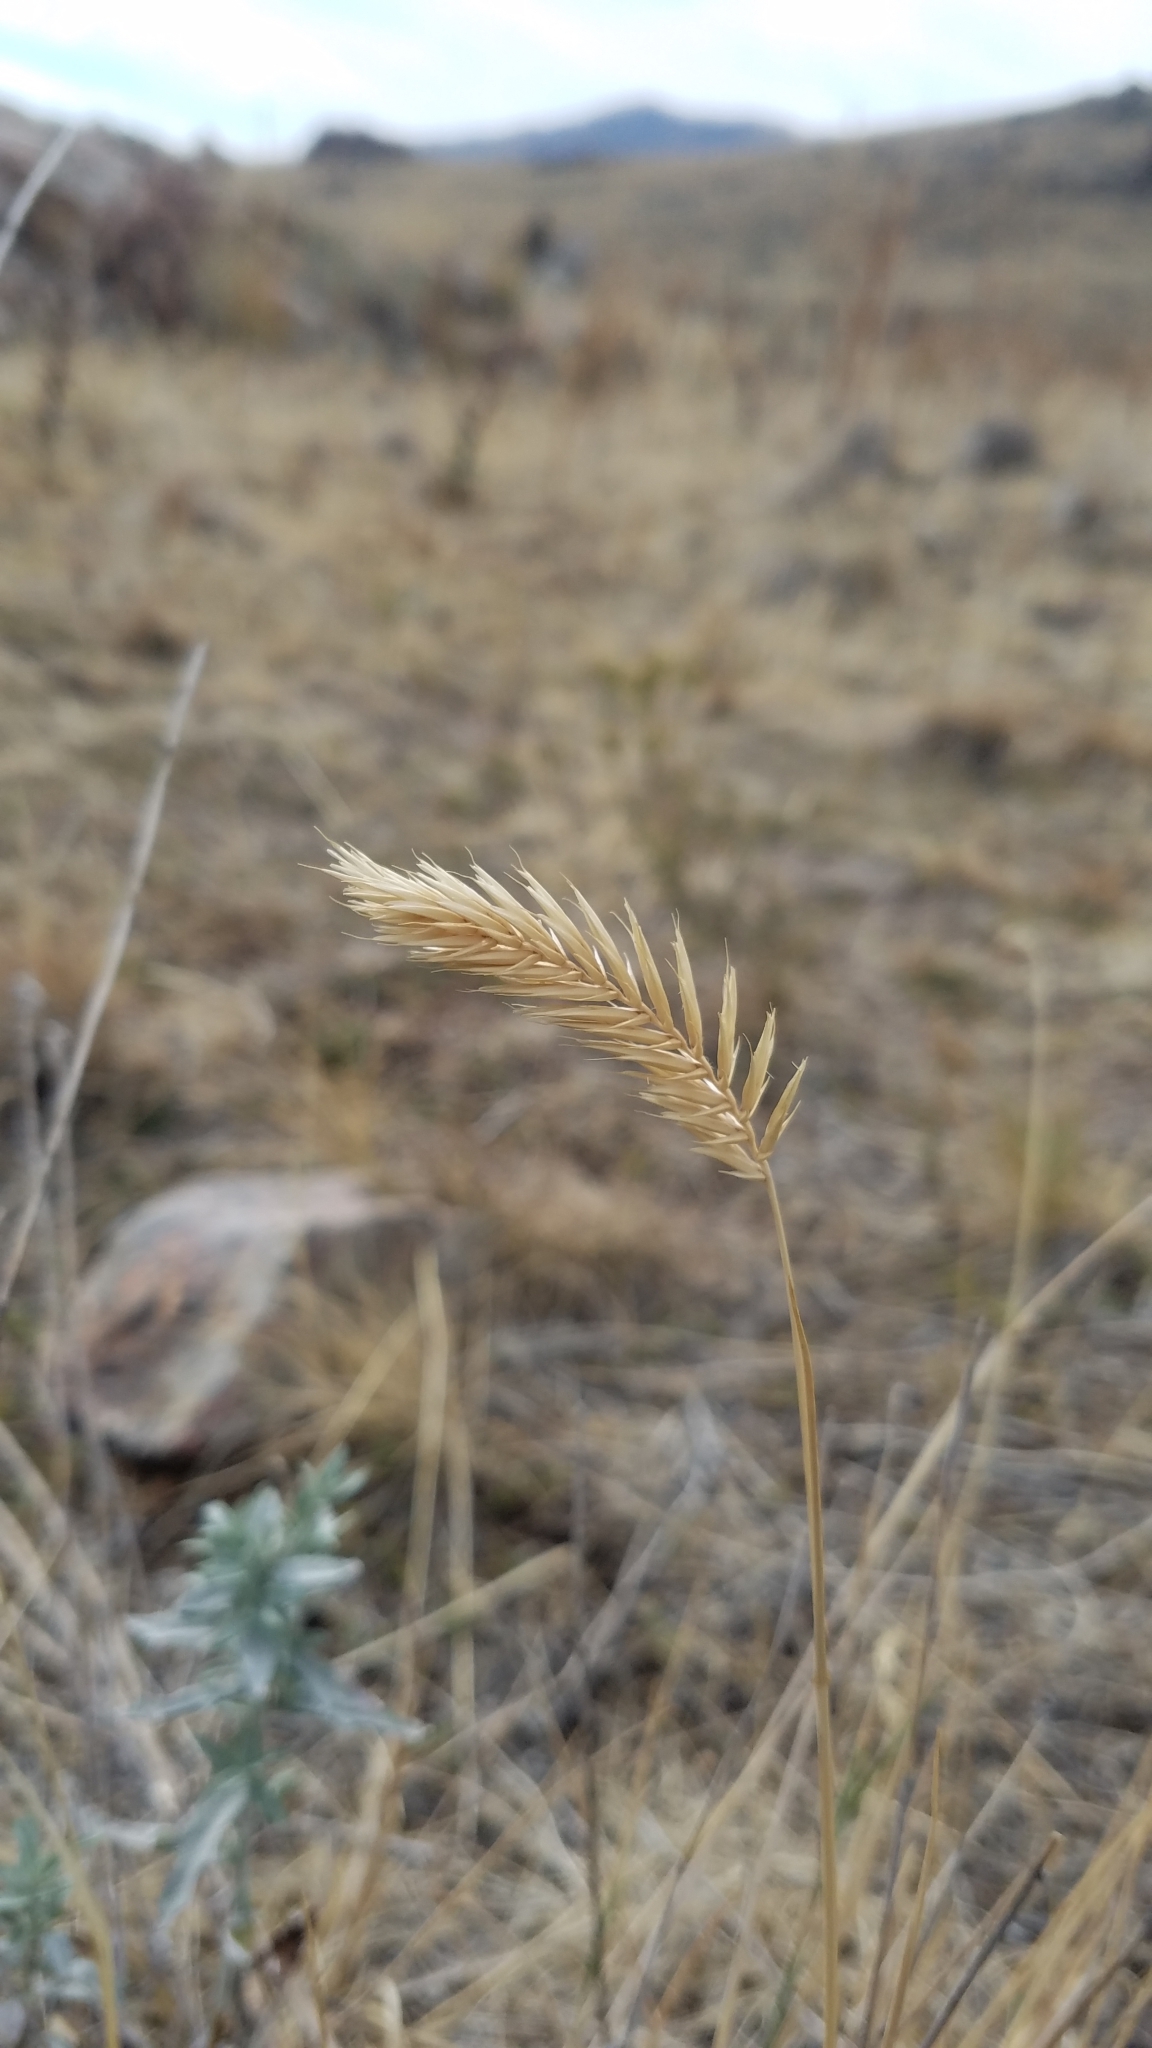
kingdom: Plantae
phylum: Tracheophyta
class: Liliopsida
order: Poales
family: Poaceae
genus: Agropyron
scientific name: Agropyron cristatum
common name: Crested wheatgrass
